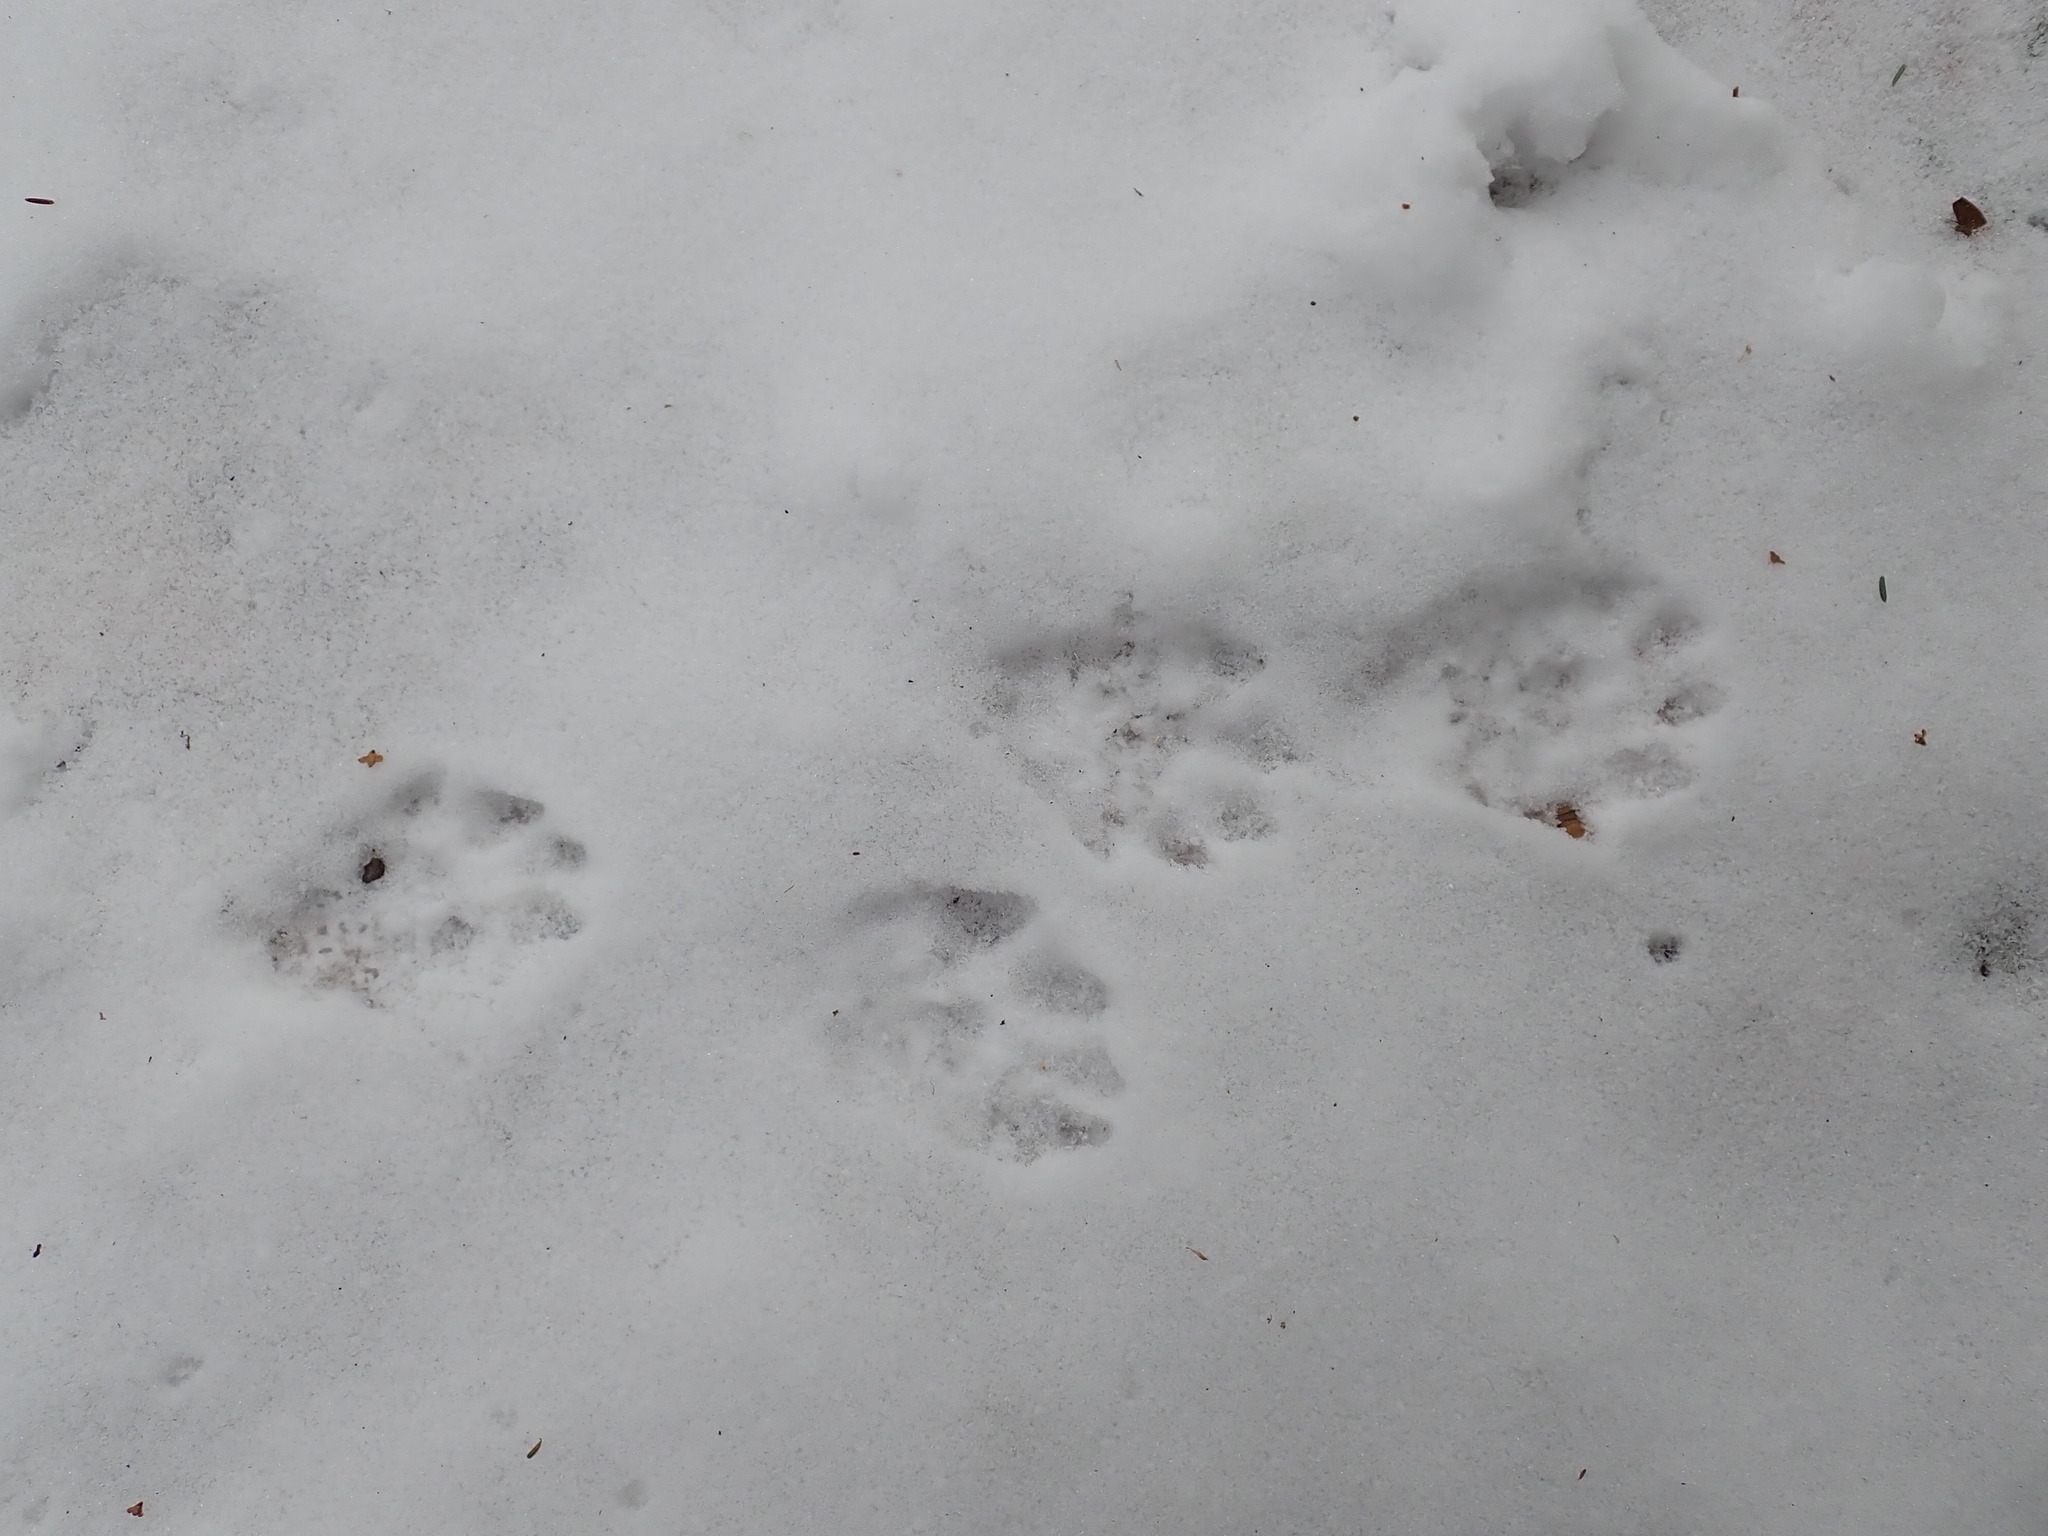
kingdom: Animalia
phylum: Chordata
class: Mammalia
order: Carnivora
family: Mustelidae
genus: Lontra
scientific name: Lontra canadensis
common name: North american river otter
